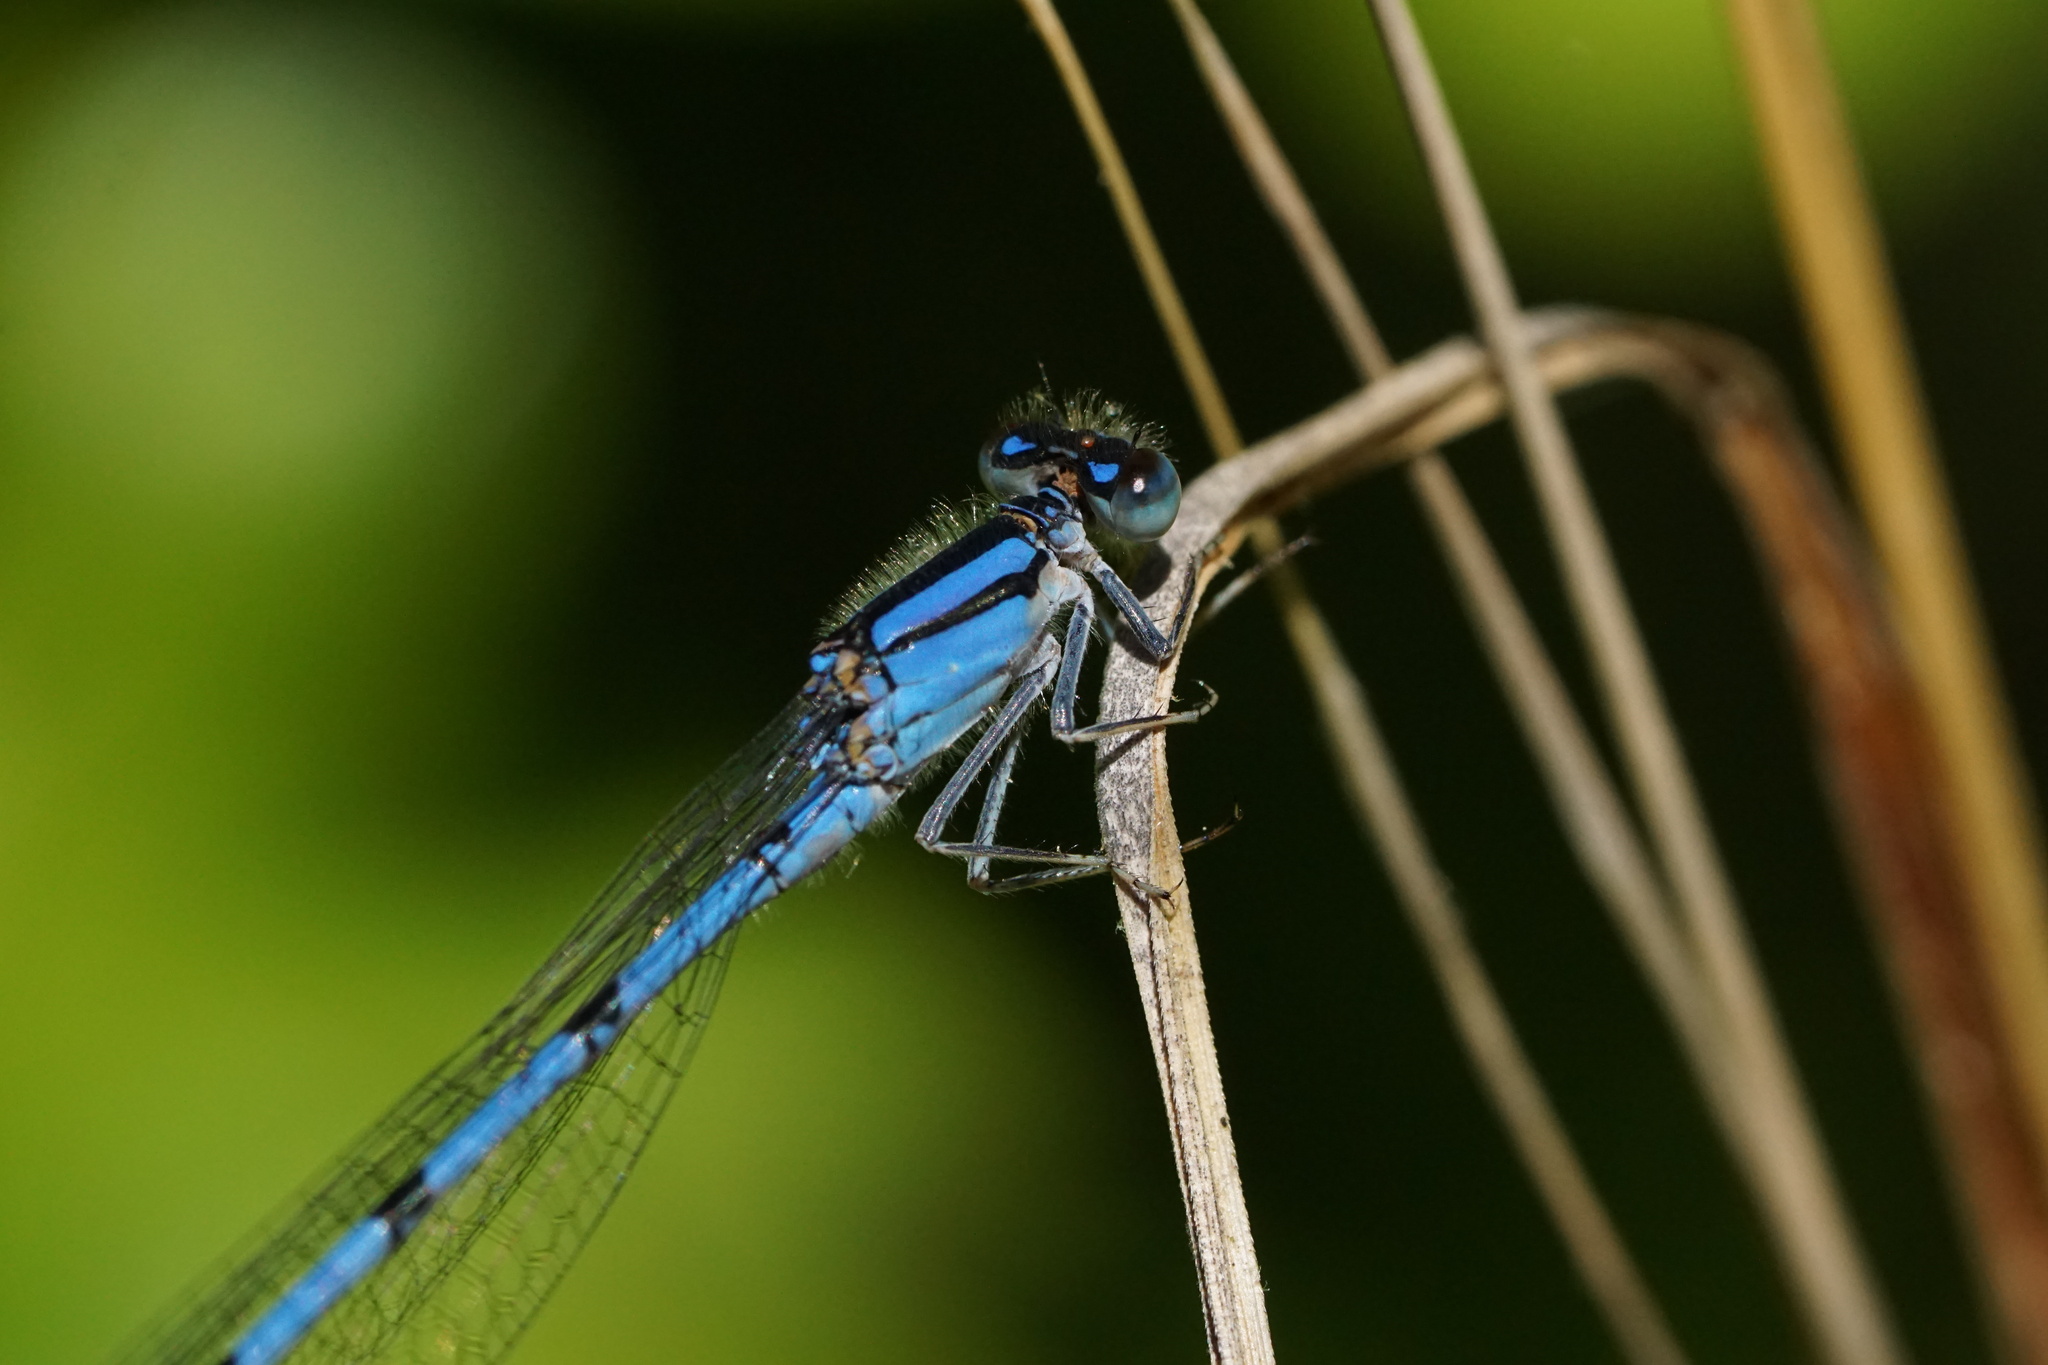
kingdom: Animalia
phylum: Arthropoda
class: Insecta
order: Odonata
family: Coenagrionidae
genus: Enallagma
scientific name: Enallagma civile
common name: Damselfly
